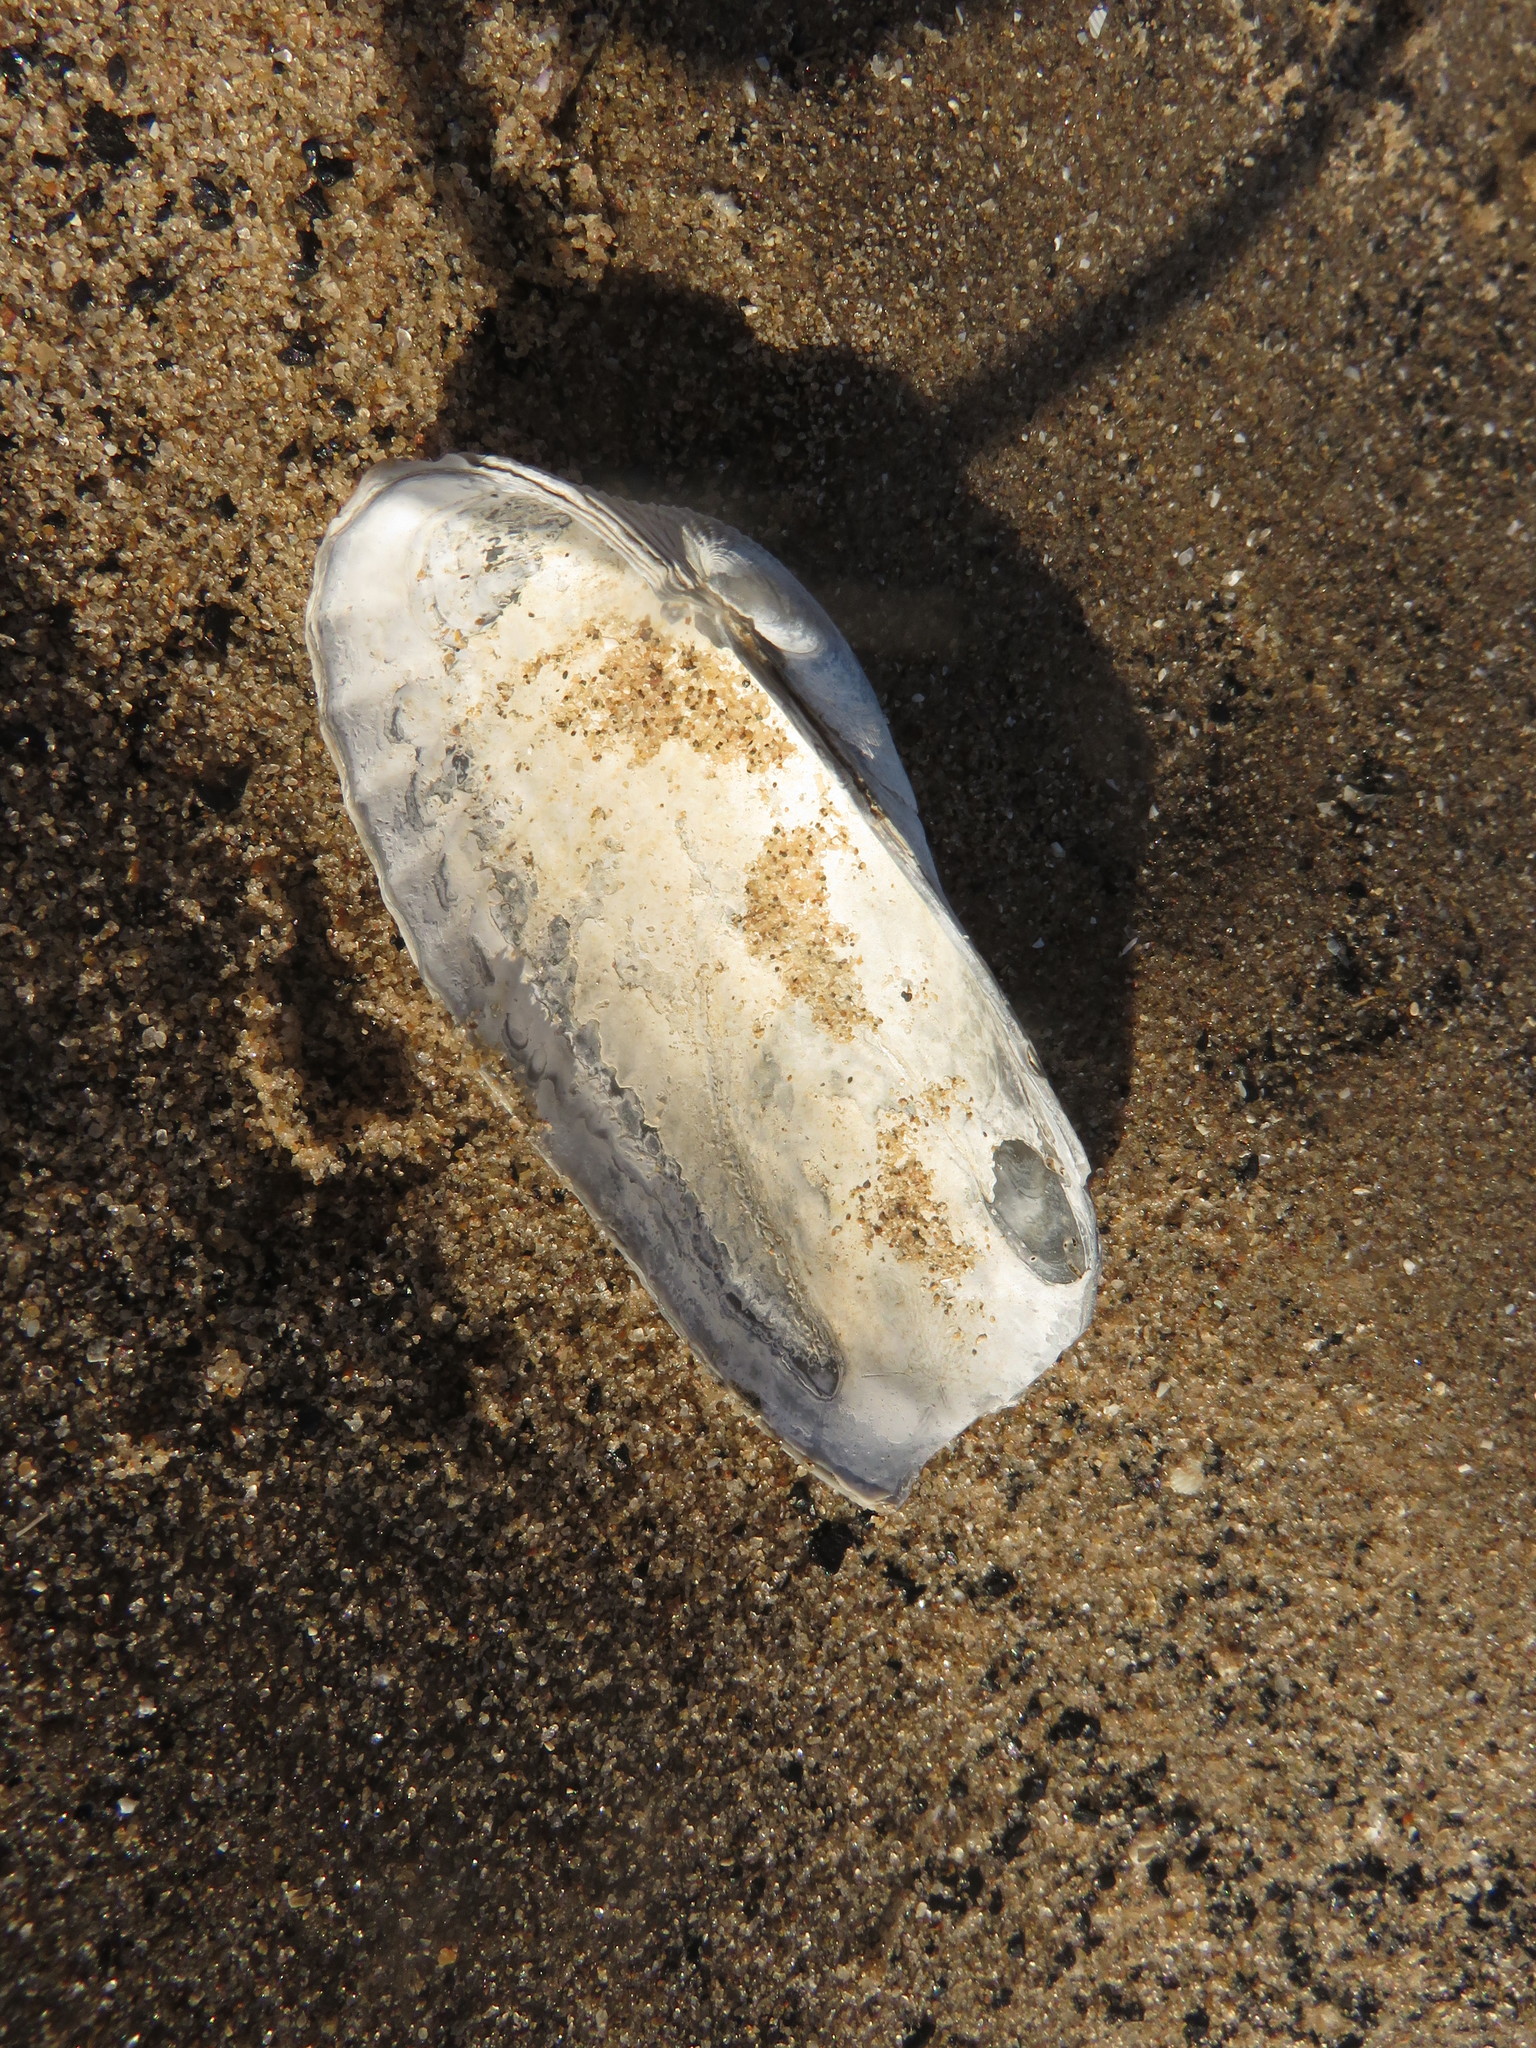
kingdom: Animalia
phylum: Mollusca
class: Bivalvia
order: Venerida
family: Veneridae
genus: Petricolaria
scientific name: Petricolaria pholadiformis
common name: American piddock
